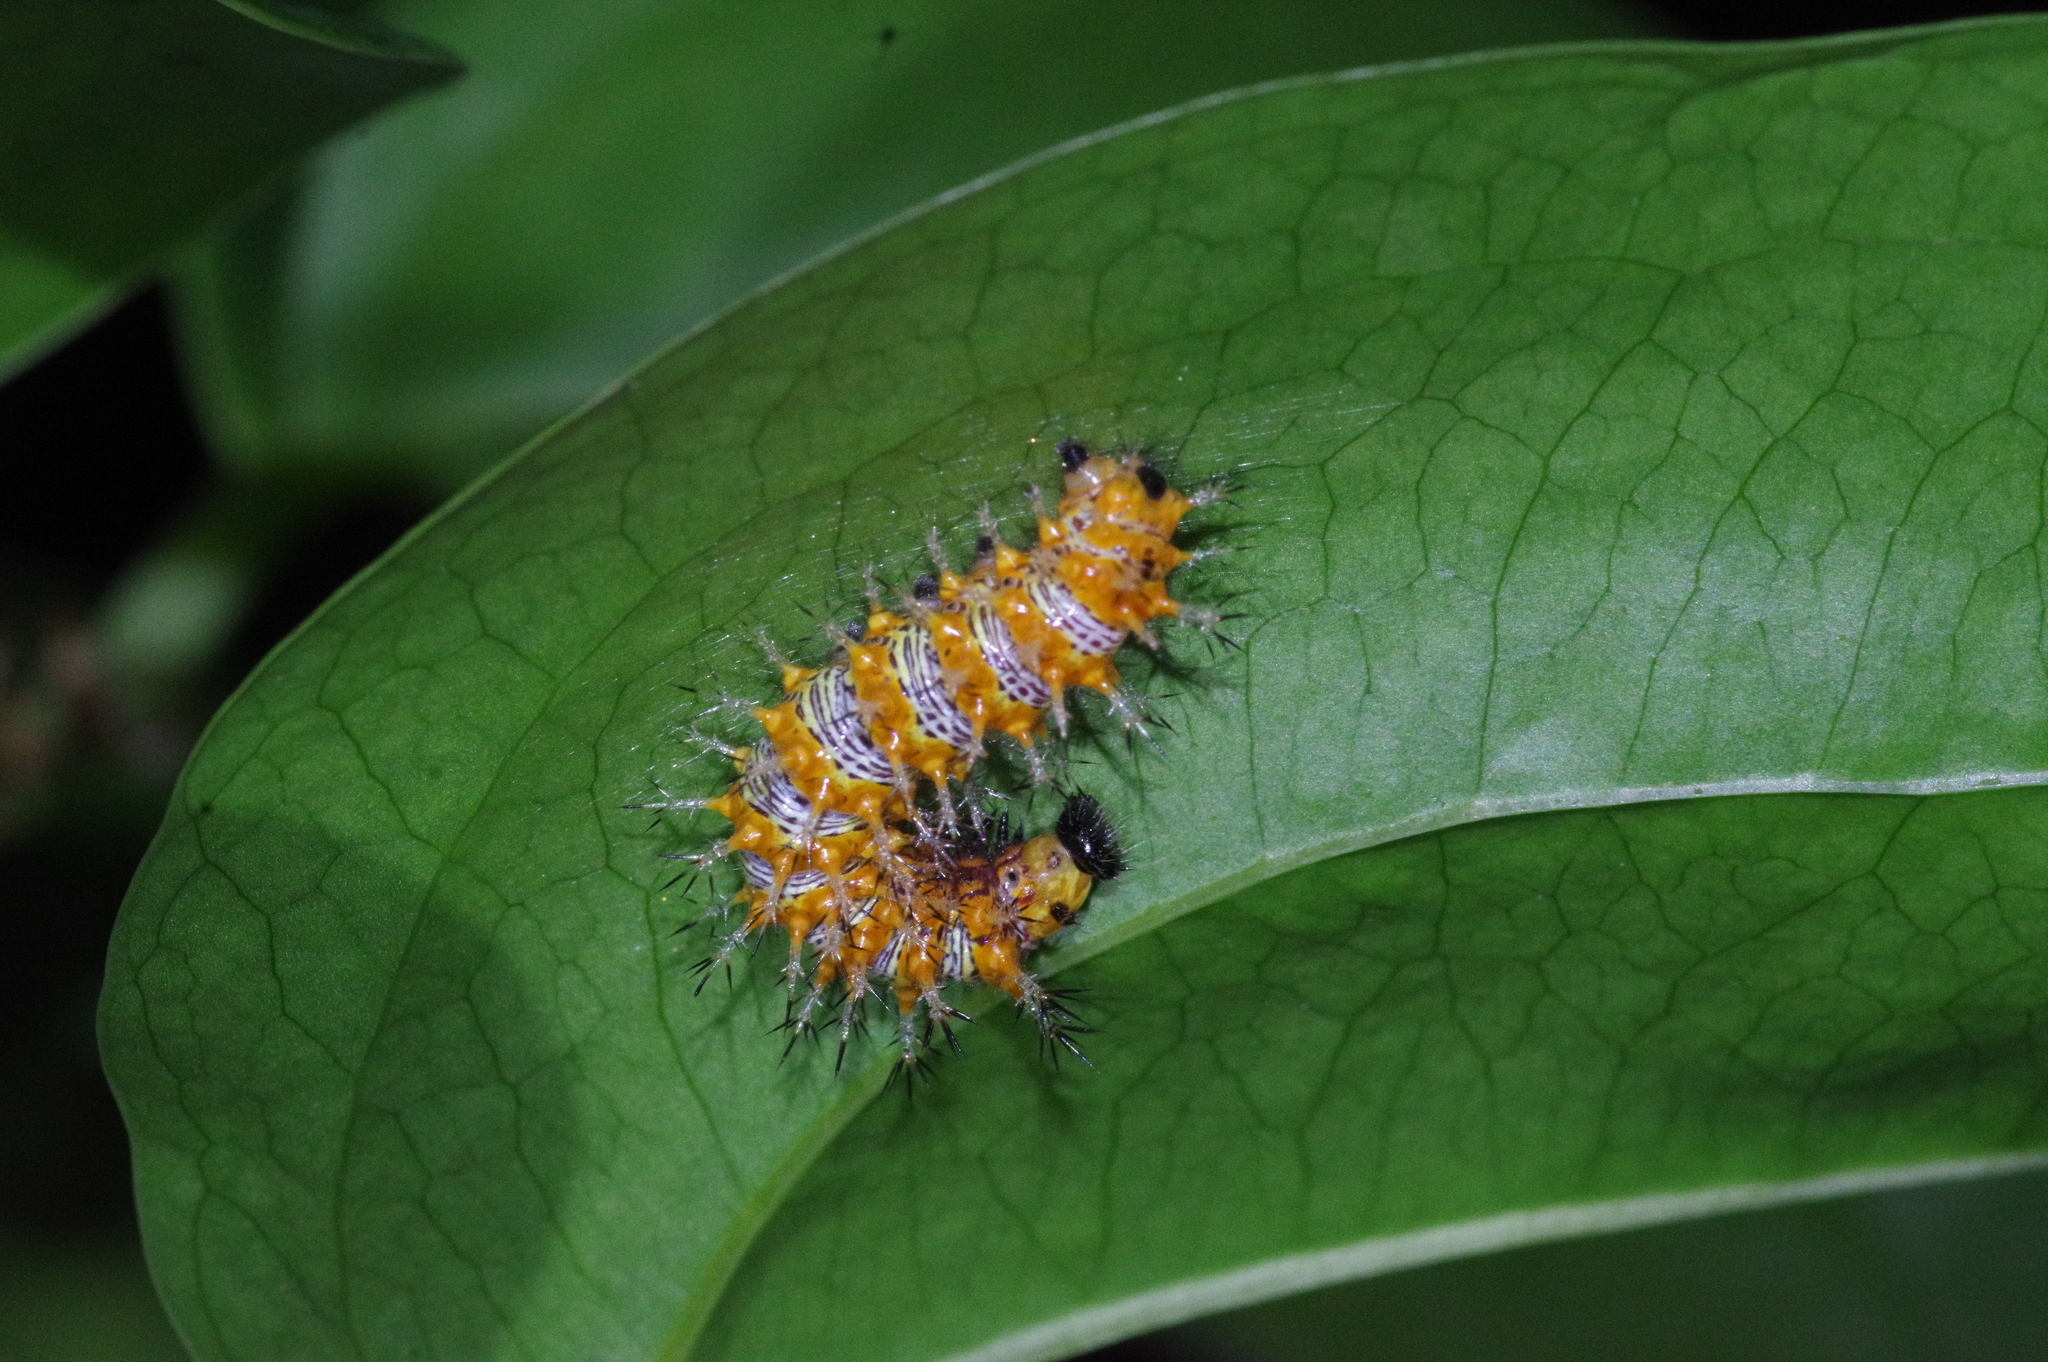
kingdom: Animalia
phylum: Arthropoda
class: Insecta
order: Lepidoptera
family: Nymphalidae
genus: Vanessa
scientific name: Vanessa Kaniska canace
